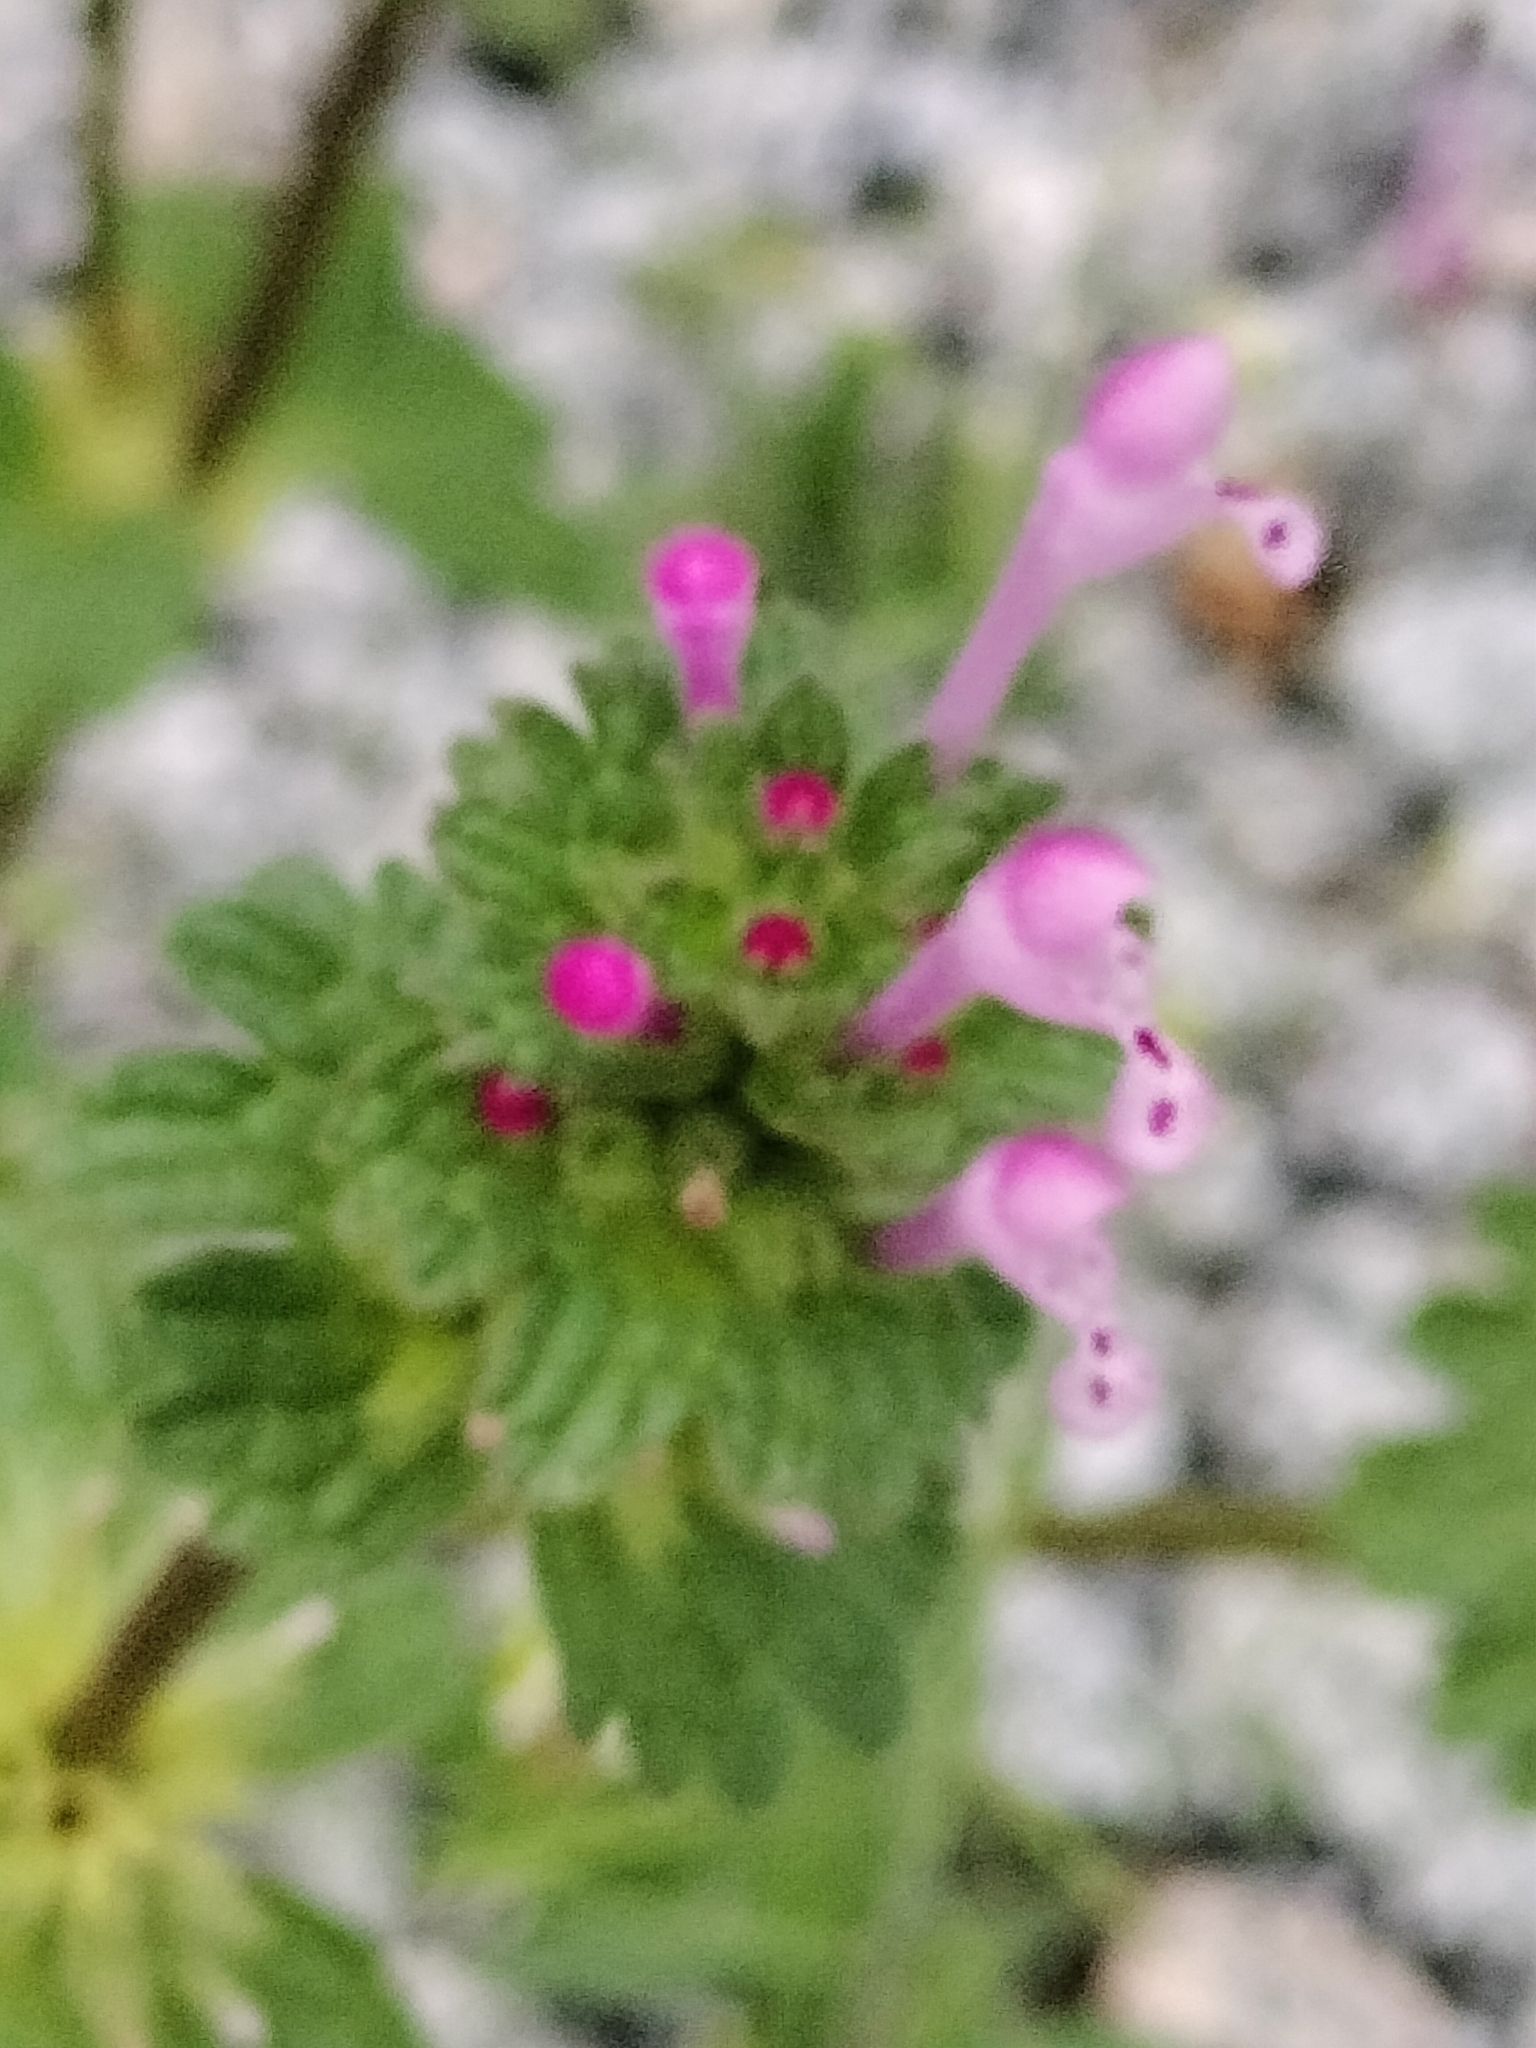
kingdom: Plantae
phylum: Tracheophyta
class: Magnoliopsida
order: Lamiales
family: Lamiaceae
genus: Lamium
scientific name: Lamium amplexicaule
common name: Henbit dead-nettle
